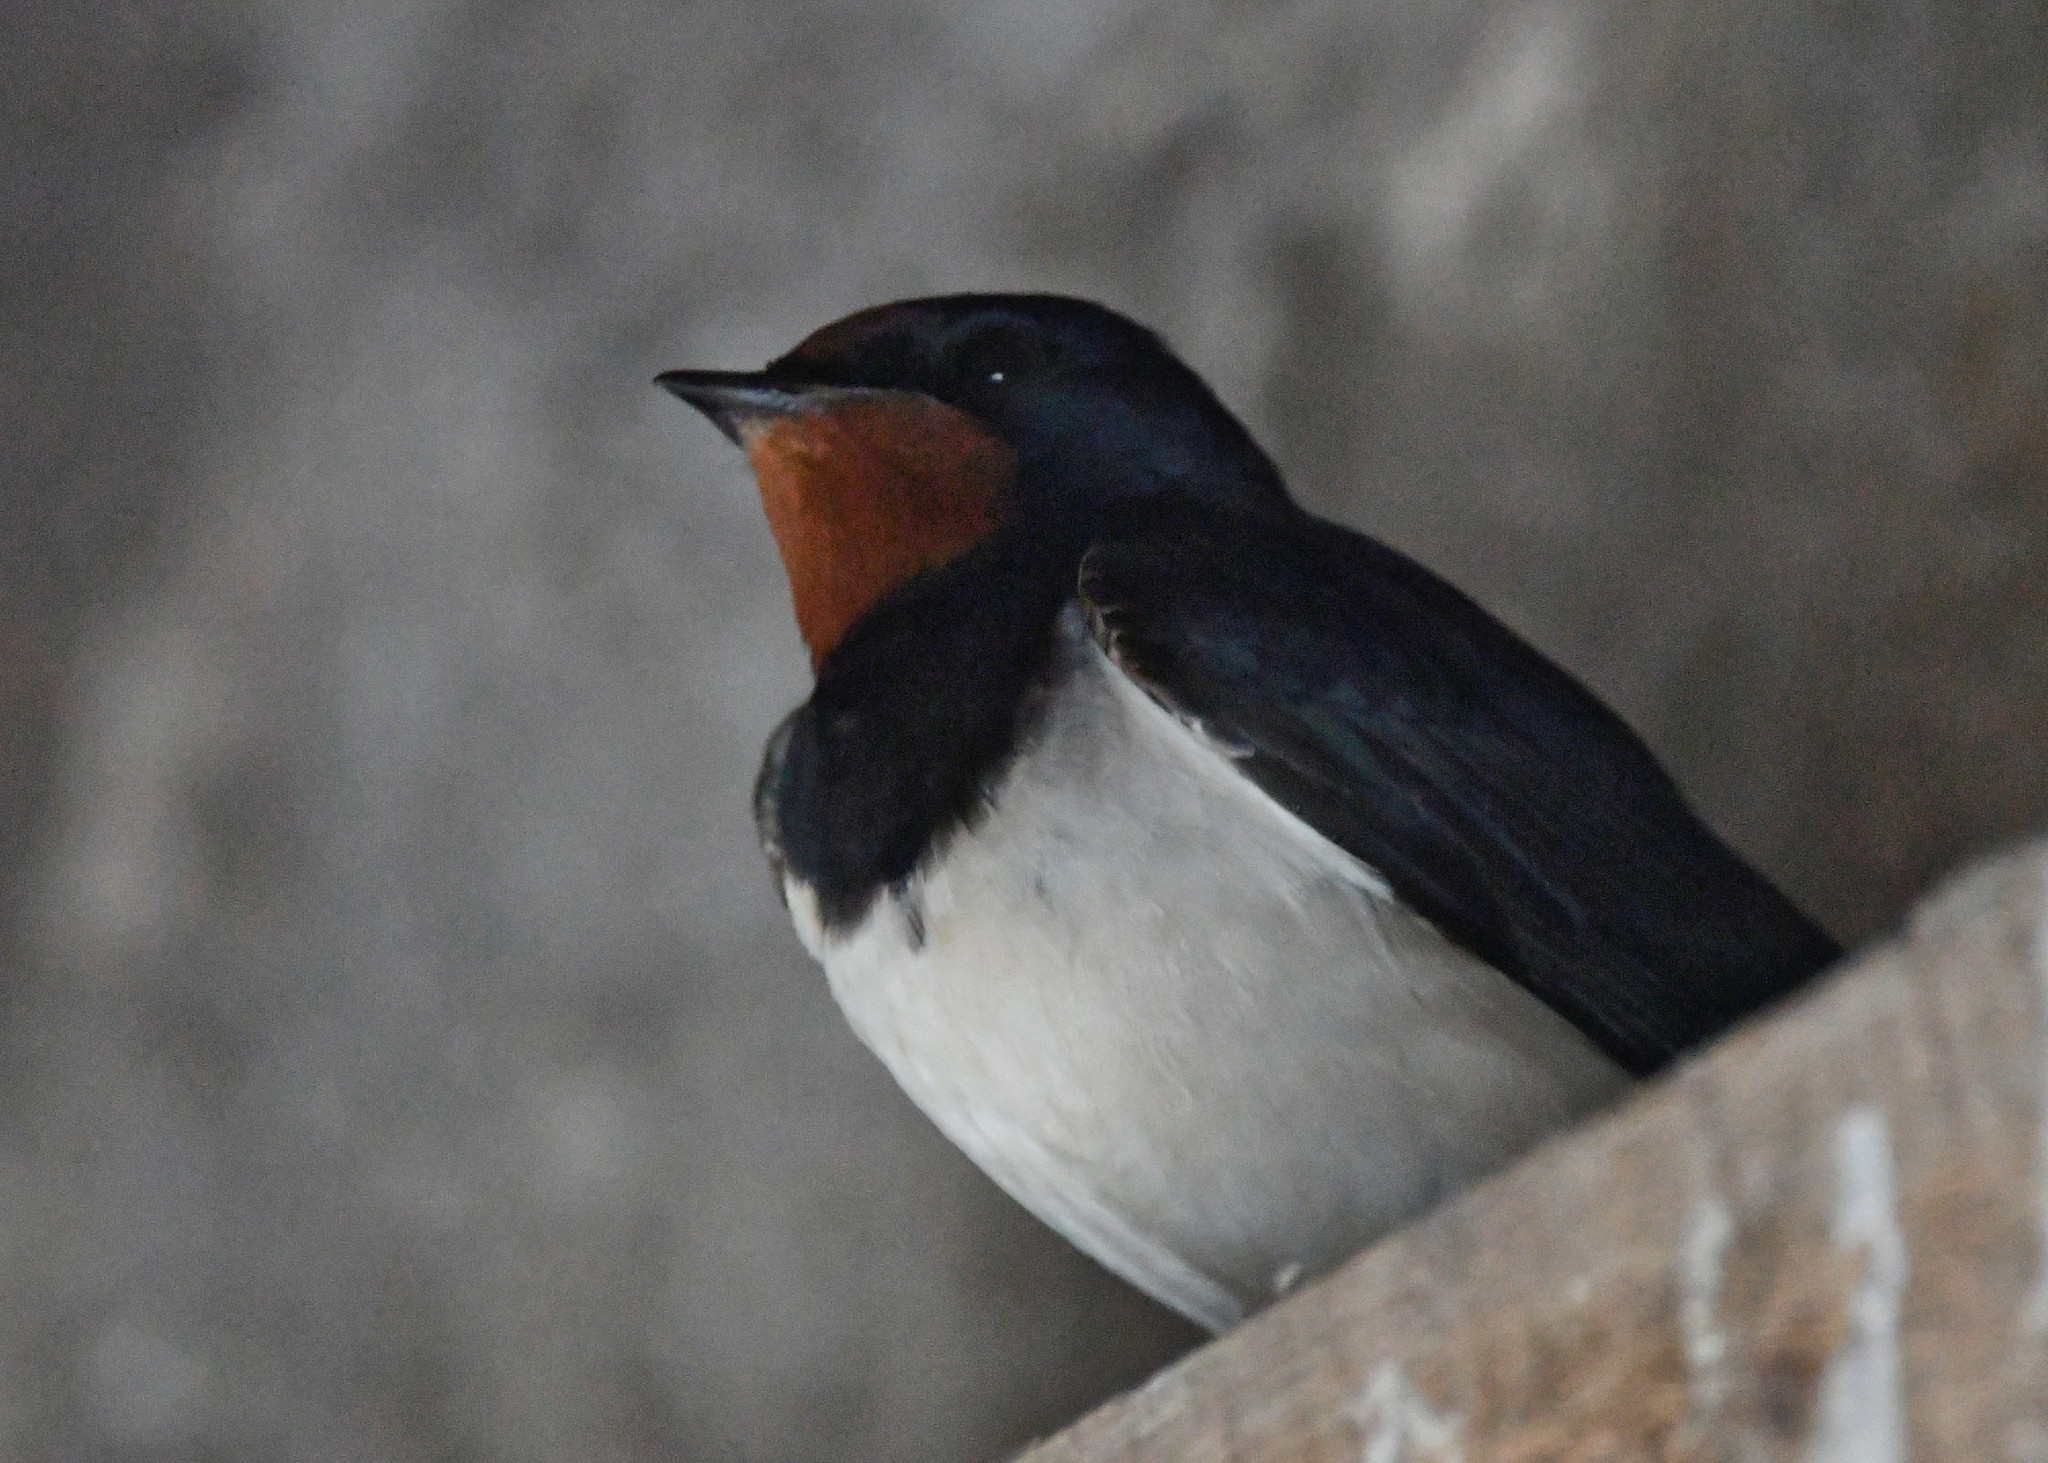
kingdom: Animalia
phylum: Chordata
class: Aves
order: Passeriformes
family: Hirundinidae
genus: Hirundo
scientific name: Hirundo rustica
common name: Barn swallow
